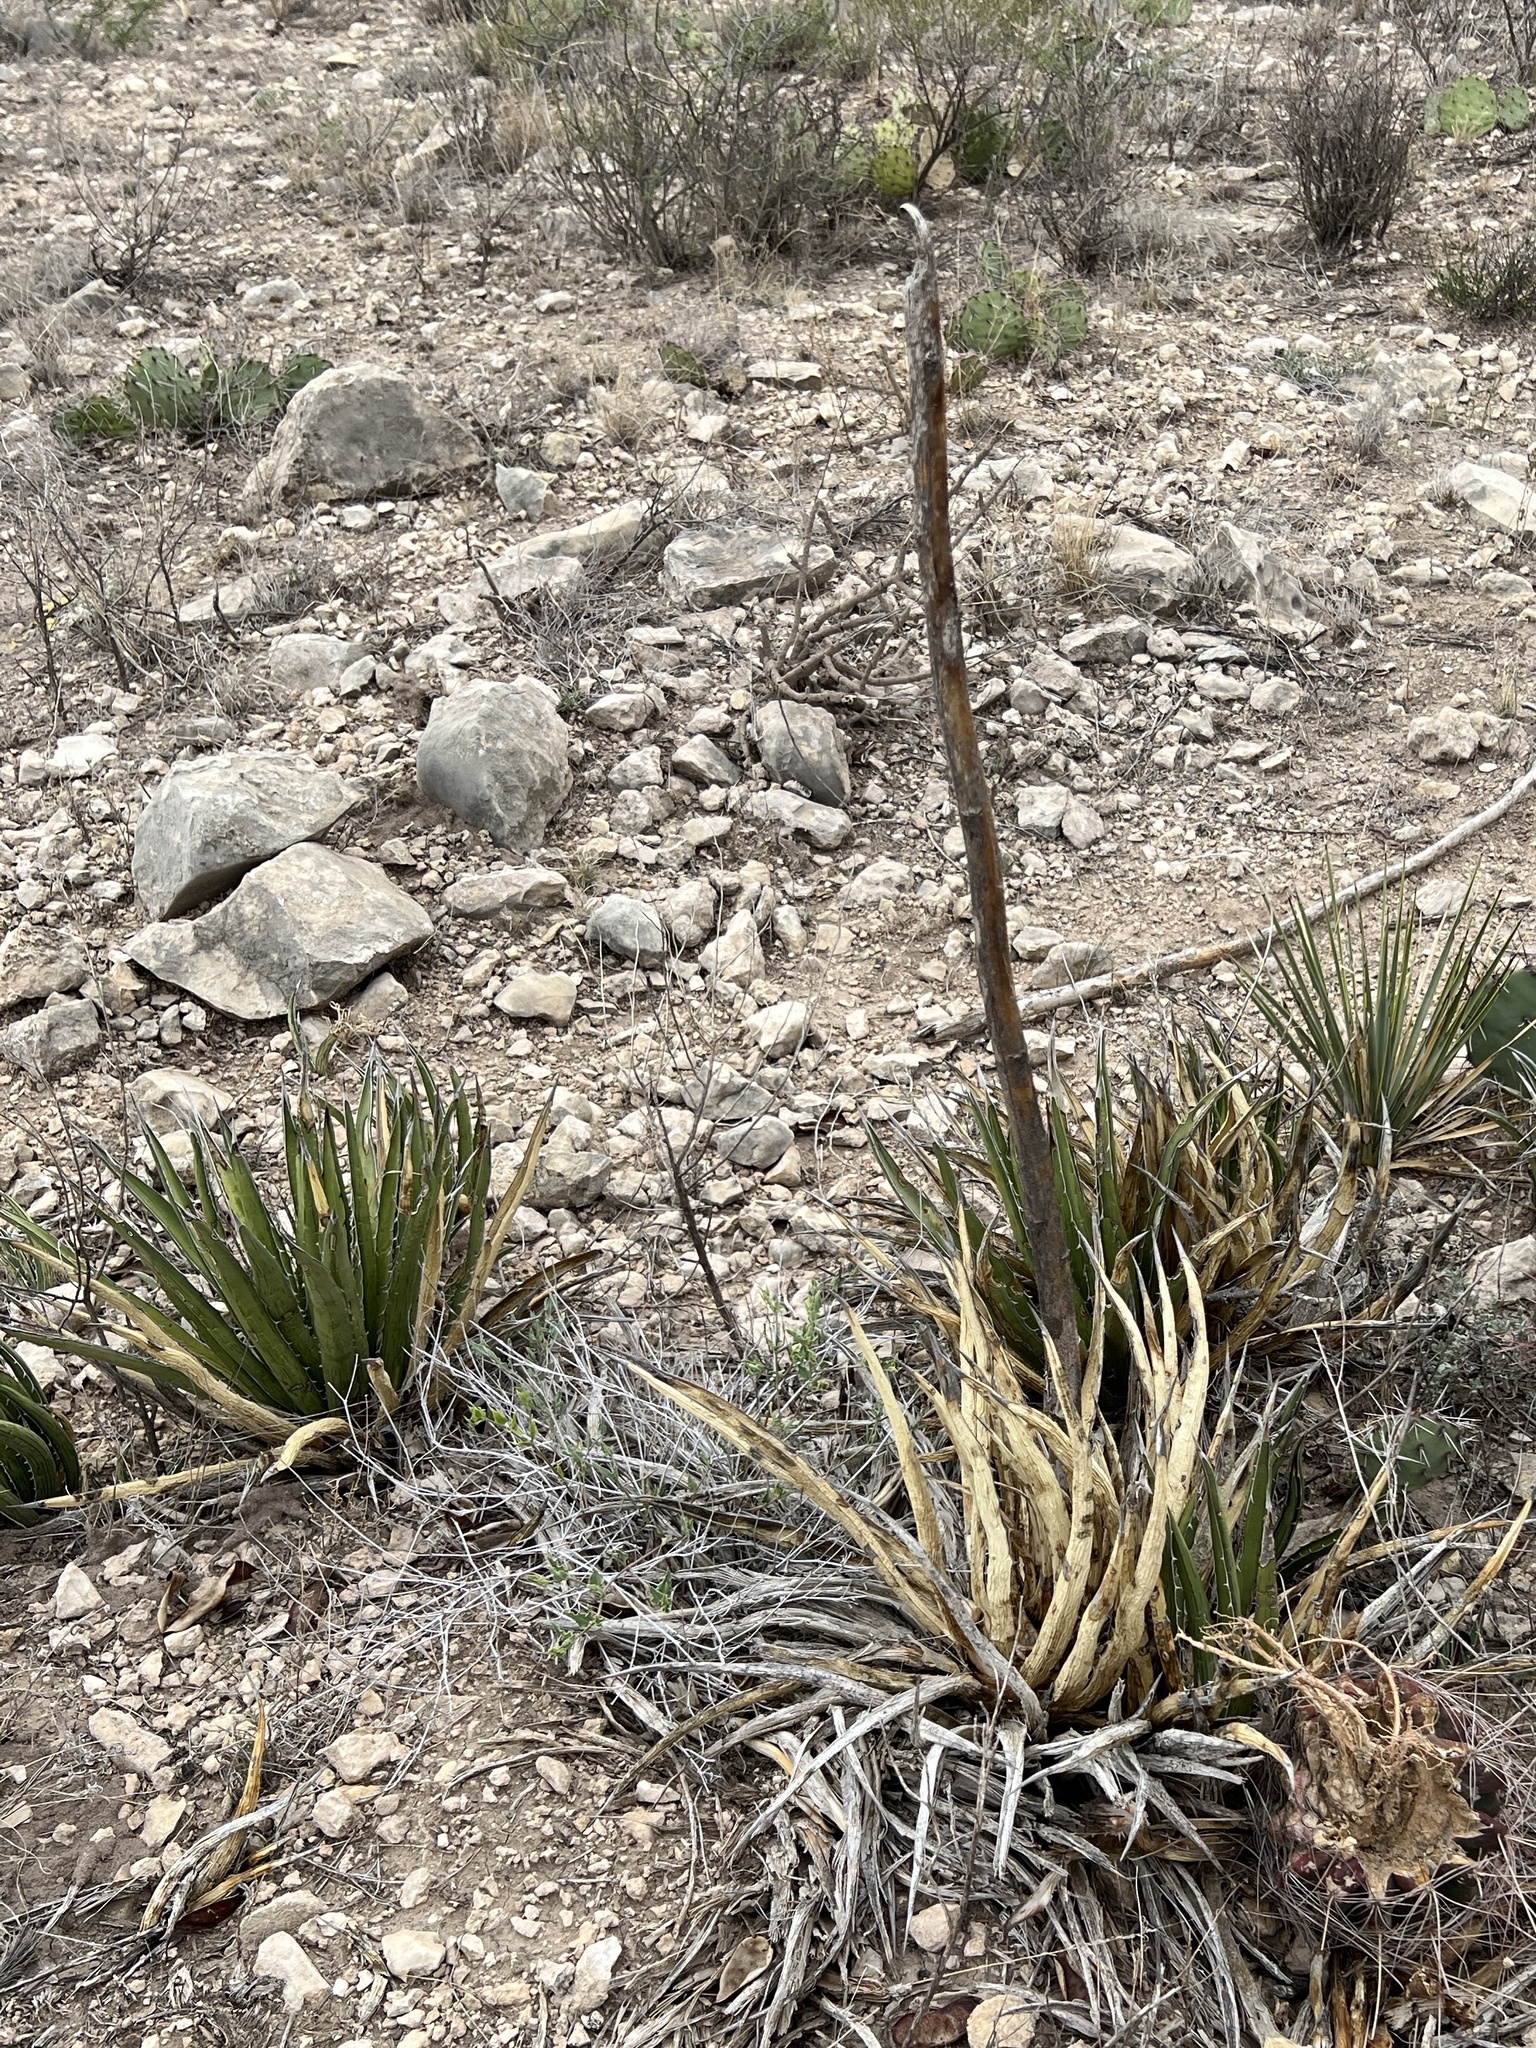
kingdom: Plantae
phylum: Tracheophyta
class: Liliopsida
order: Asparagales
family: Asparagaceae
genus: Agave
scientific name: Agave lechuguilla
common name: Lecheguilla agave
